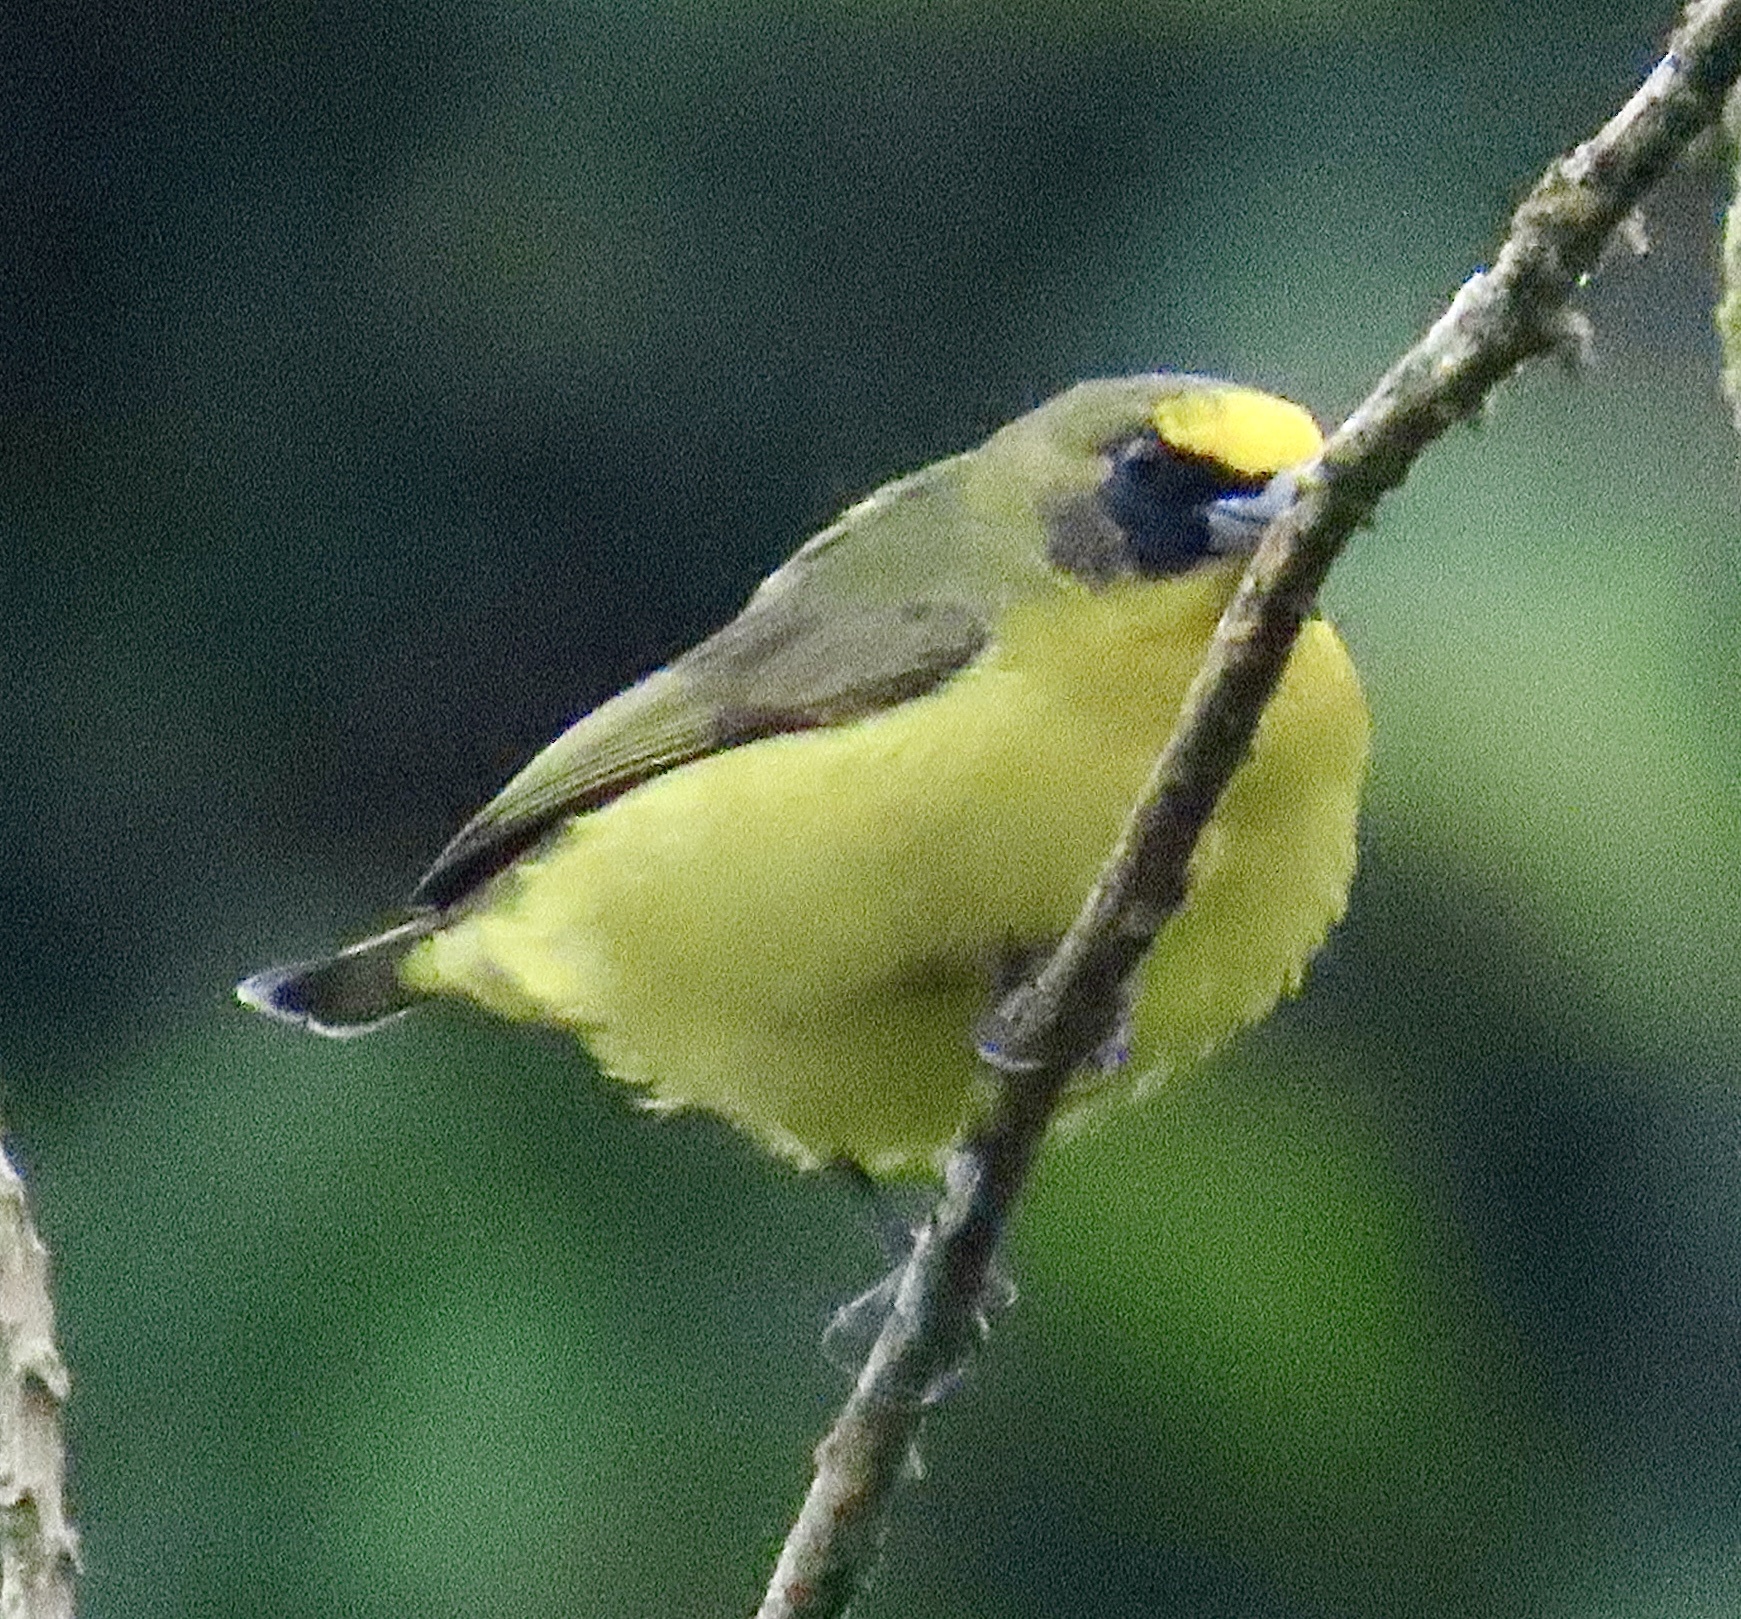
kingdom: Animalia
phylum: Chordata
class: Aves
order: Passeriformes
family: Fringillidae
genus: Euphonia
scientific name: Euphonia laniirostris
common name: Thick-billed euphonia
